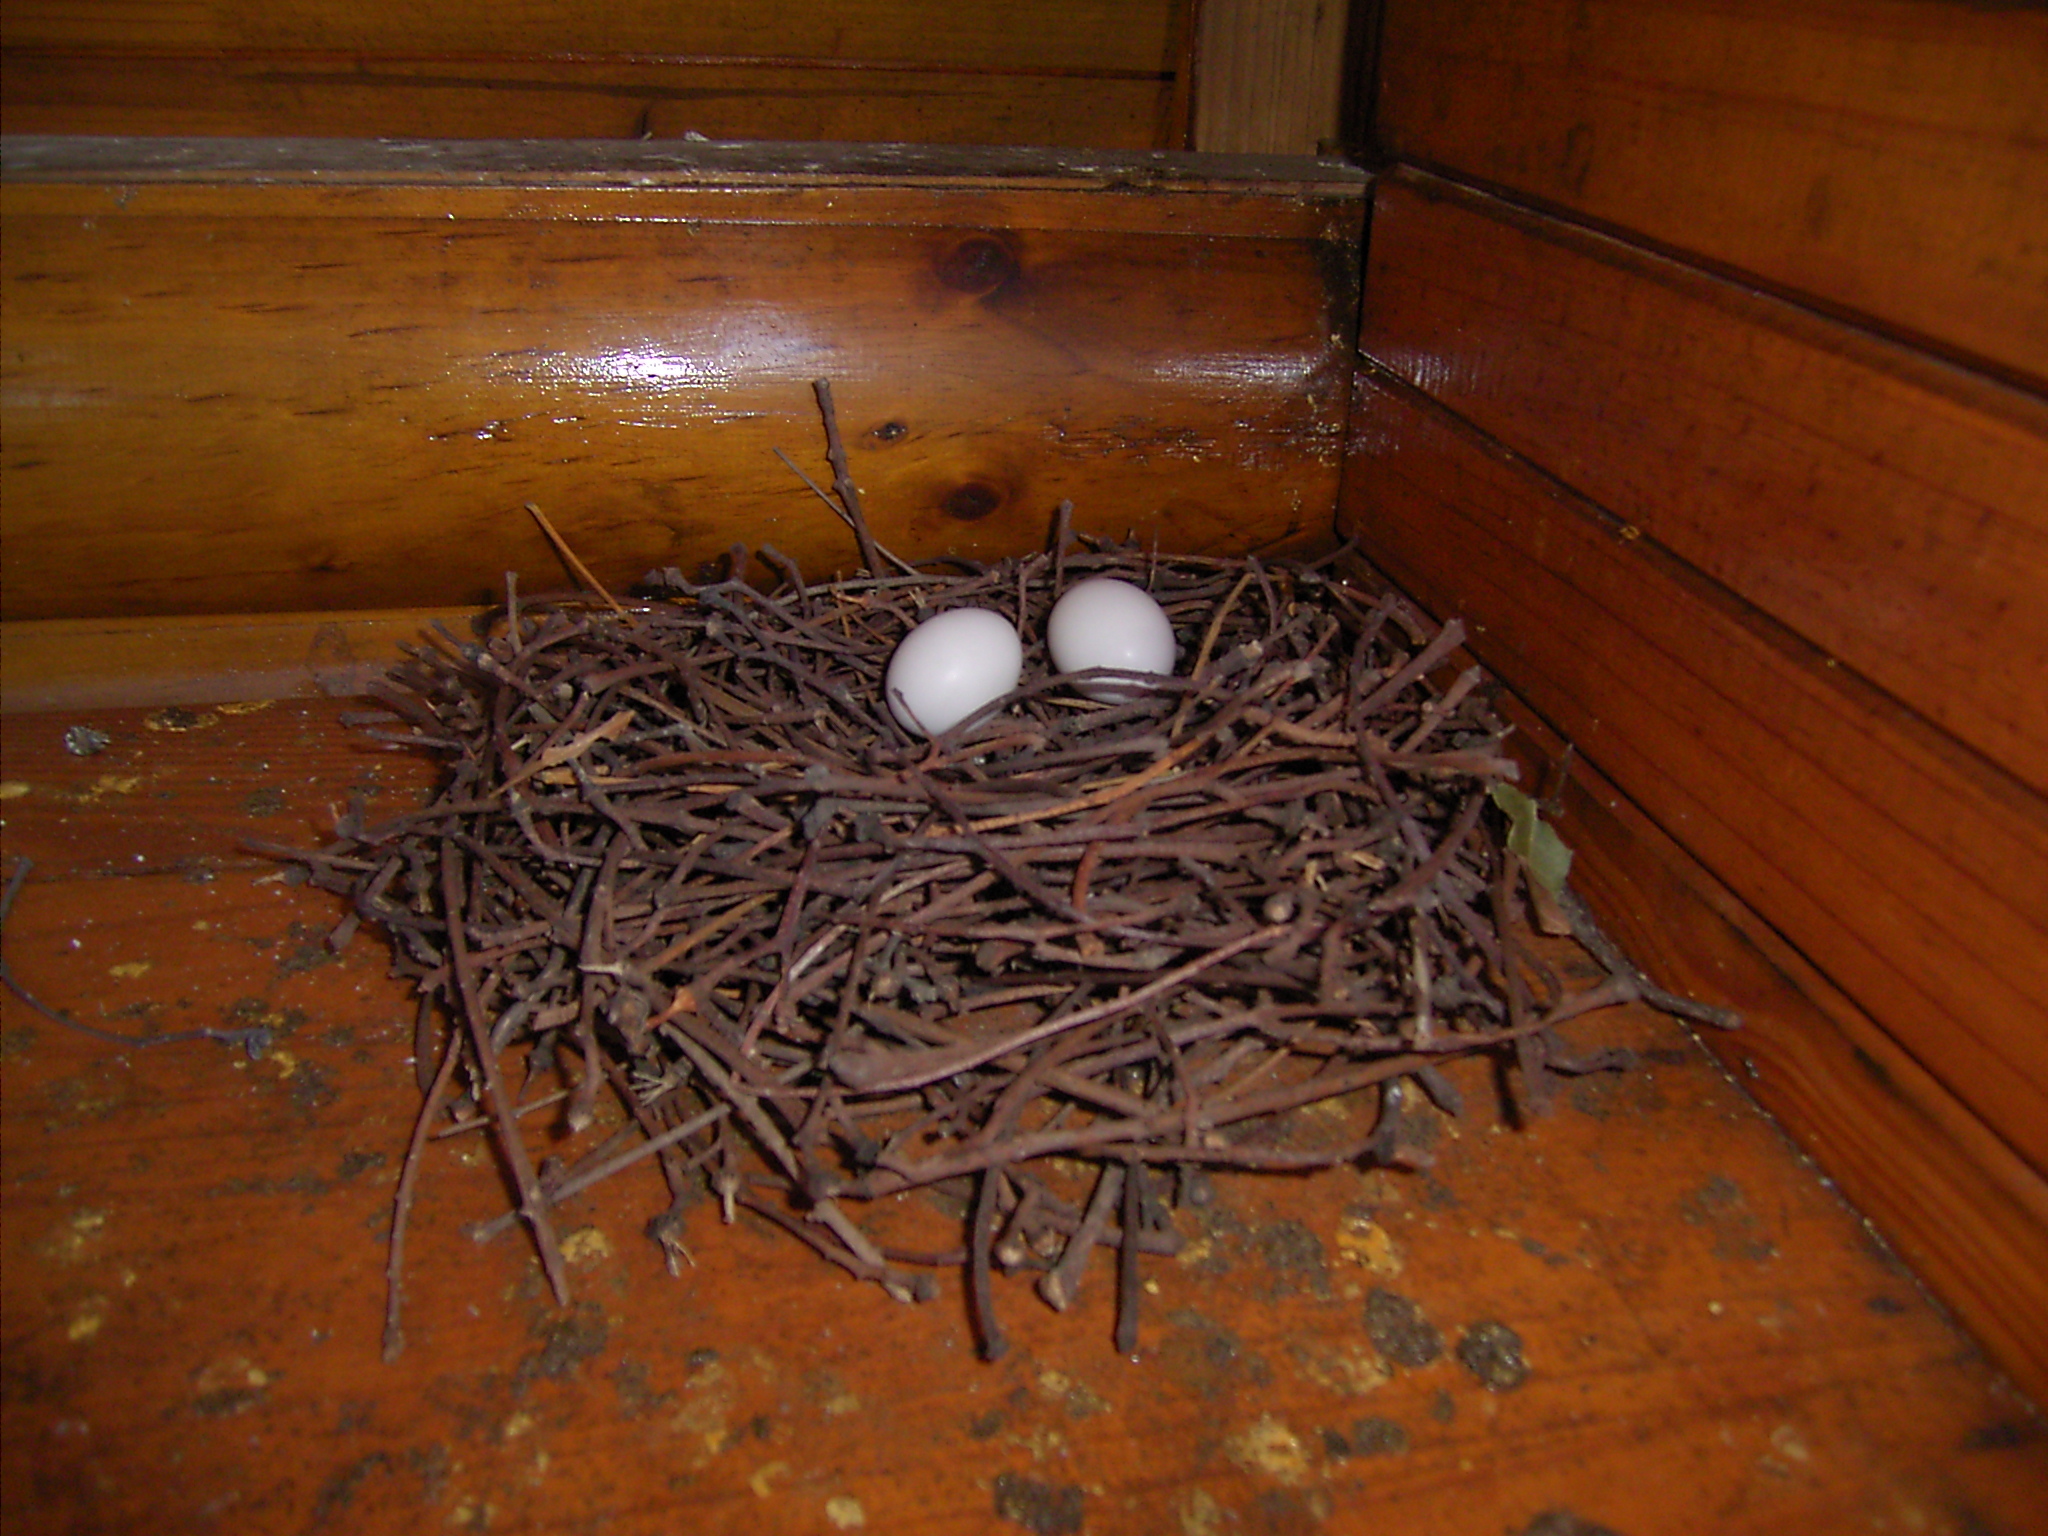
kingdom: Animalia
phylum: Chordata
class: Aves
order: Columbiformes
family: Columbidae
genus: Columba
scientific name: Columba guinea
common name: Speckled pigeon
